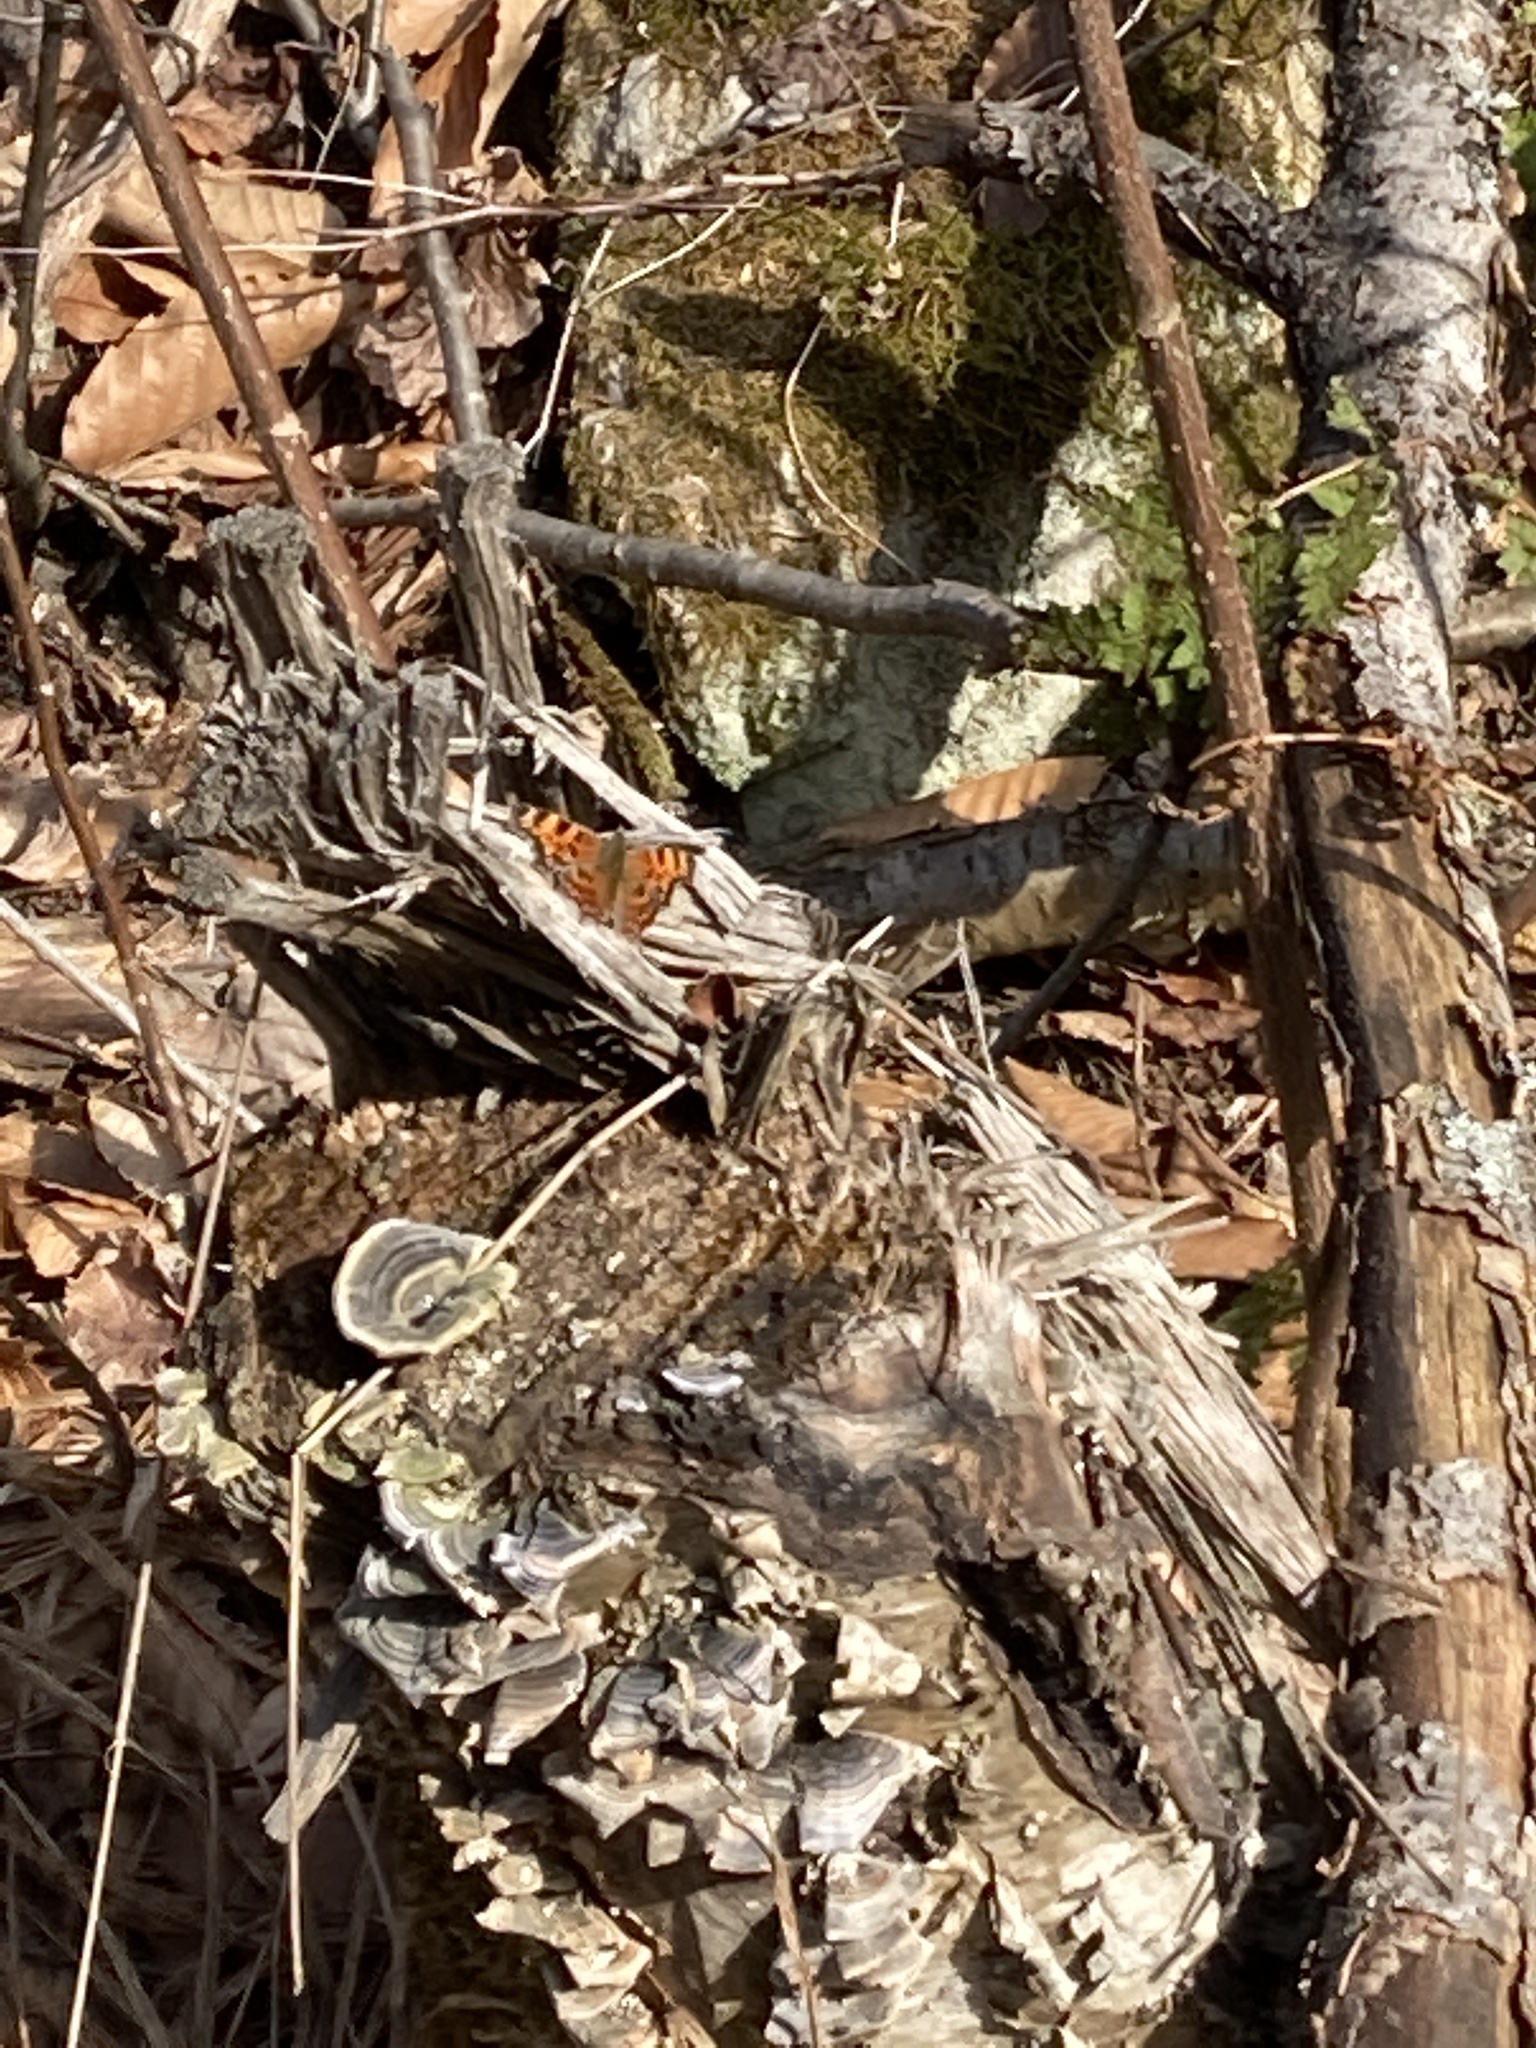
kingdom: Animalia
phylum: Arthropoda
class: Insecta
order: Lepidoptera
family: Nymphalidae
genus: Polygonia
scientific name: Polygonia faunus
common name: Green comma
